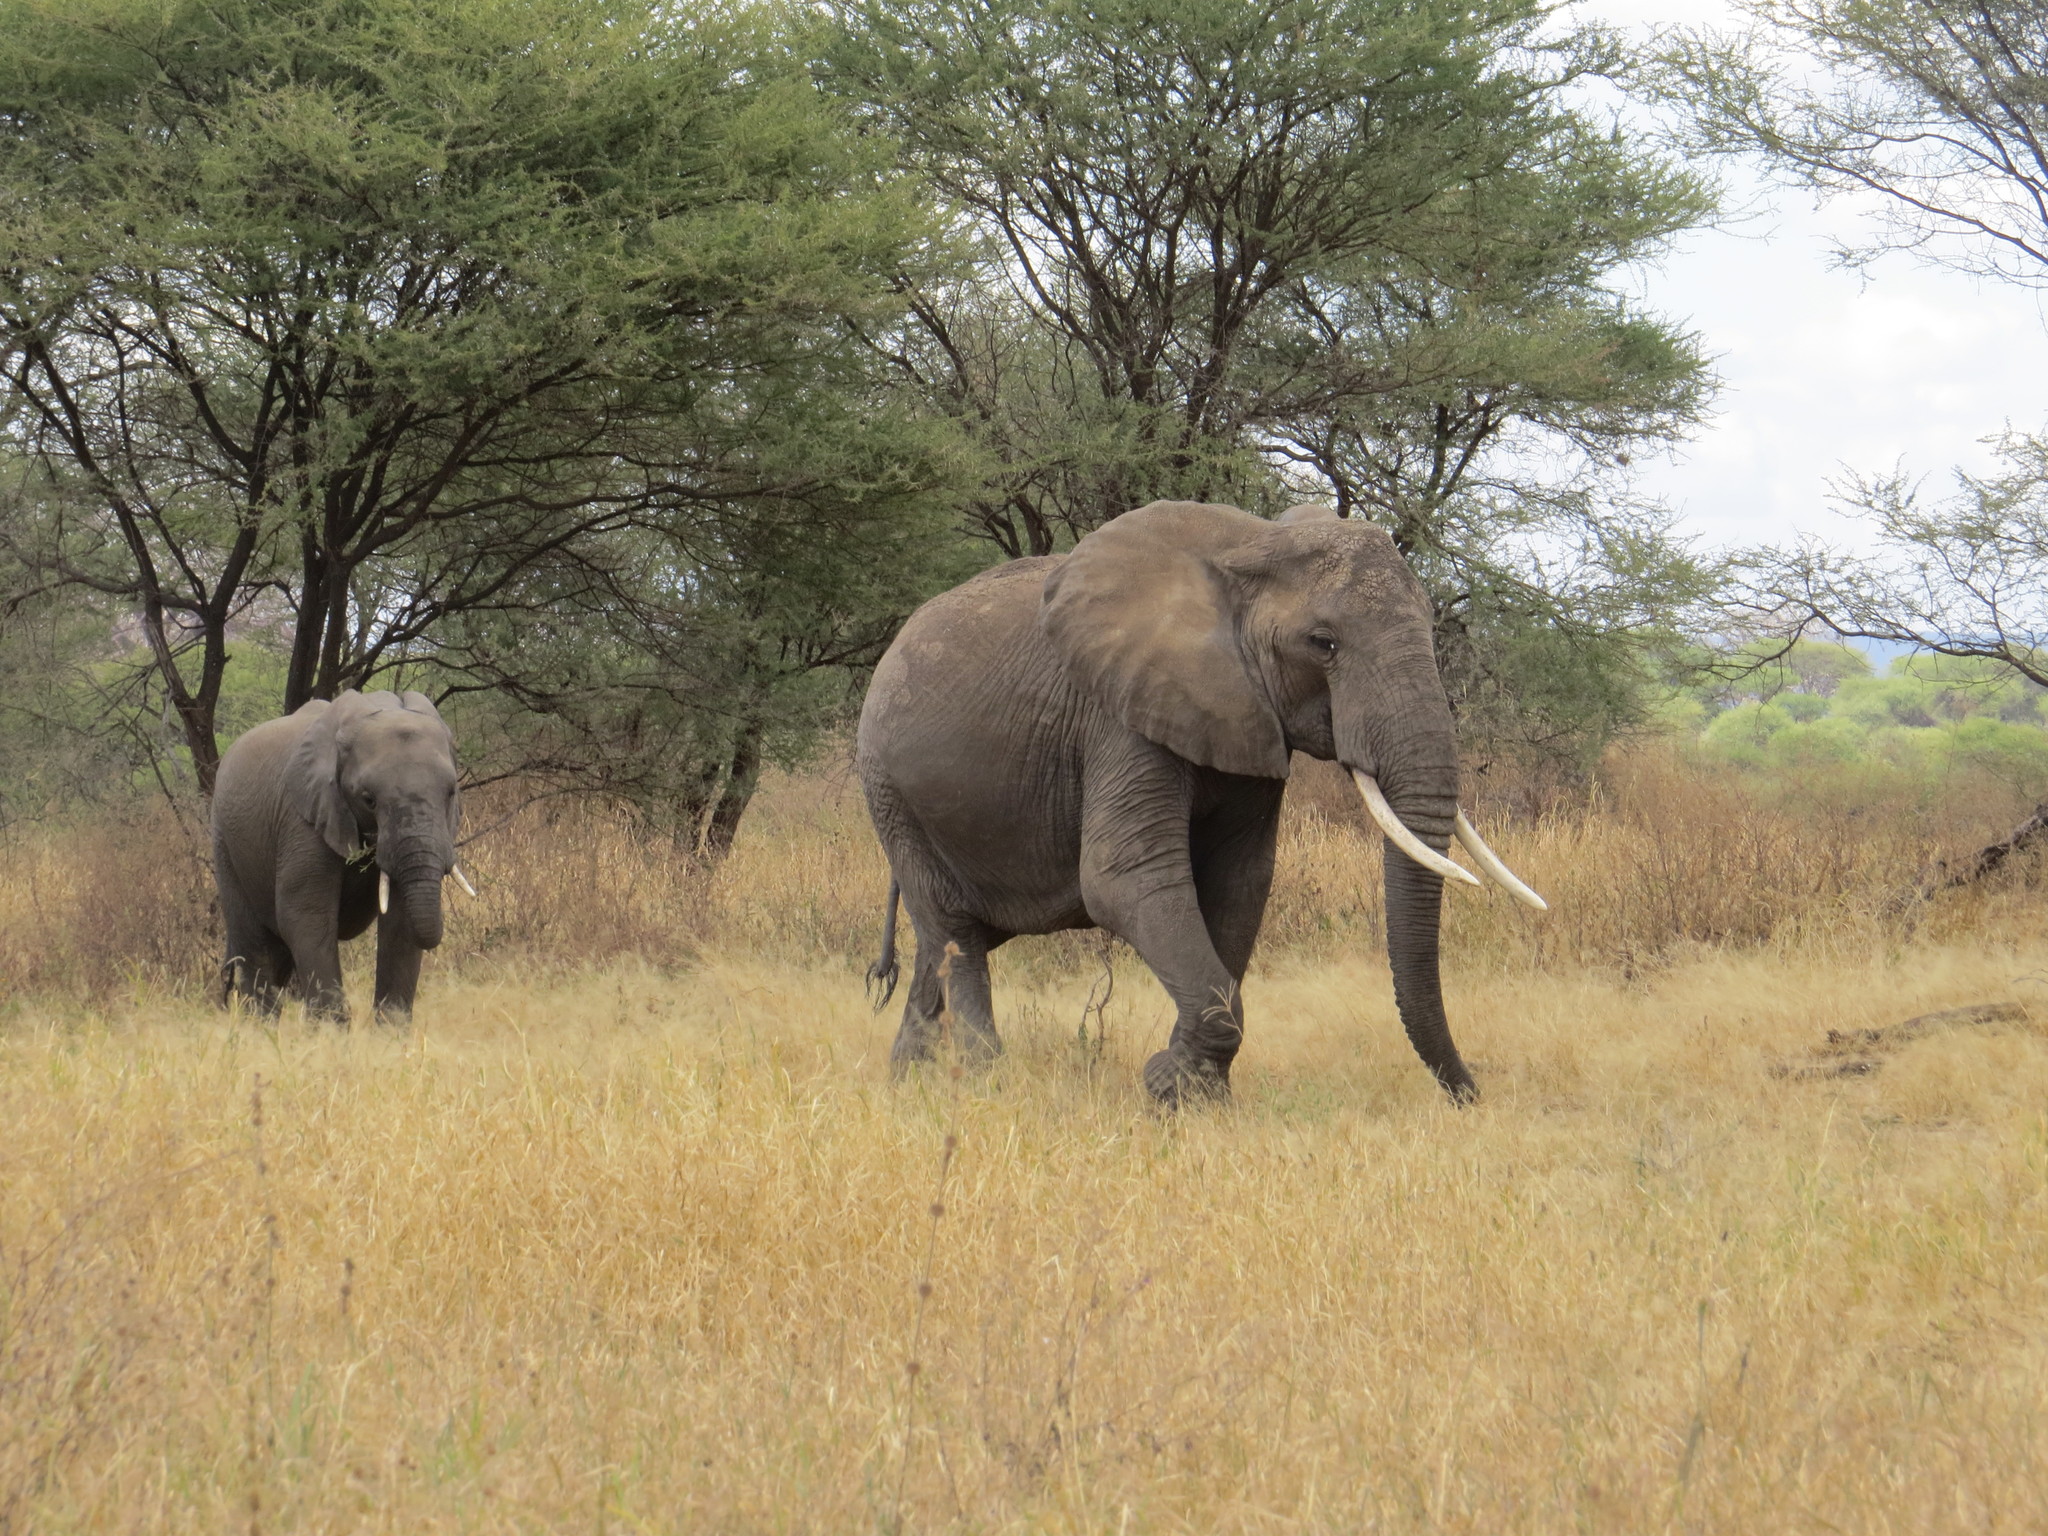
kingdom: Animalia
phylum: Chordata
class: Mammalia
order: Proboscidea
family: Elephantidae
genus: Loxodonta
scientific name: Loxodonta africana
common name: African elephant
